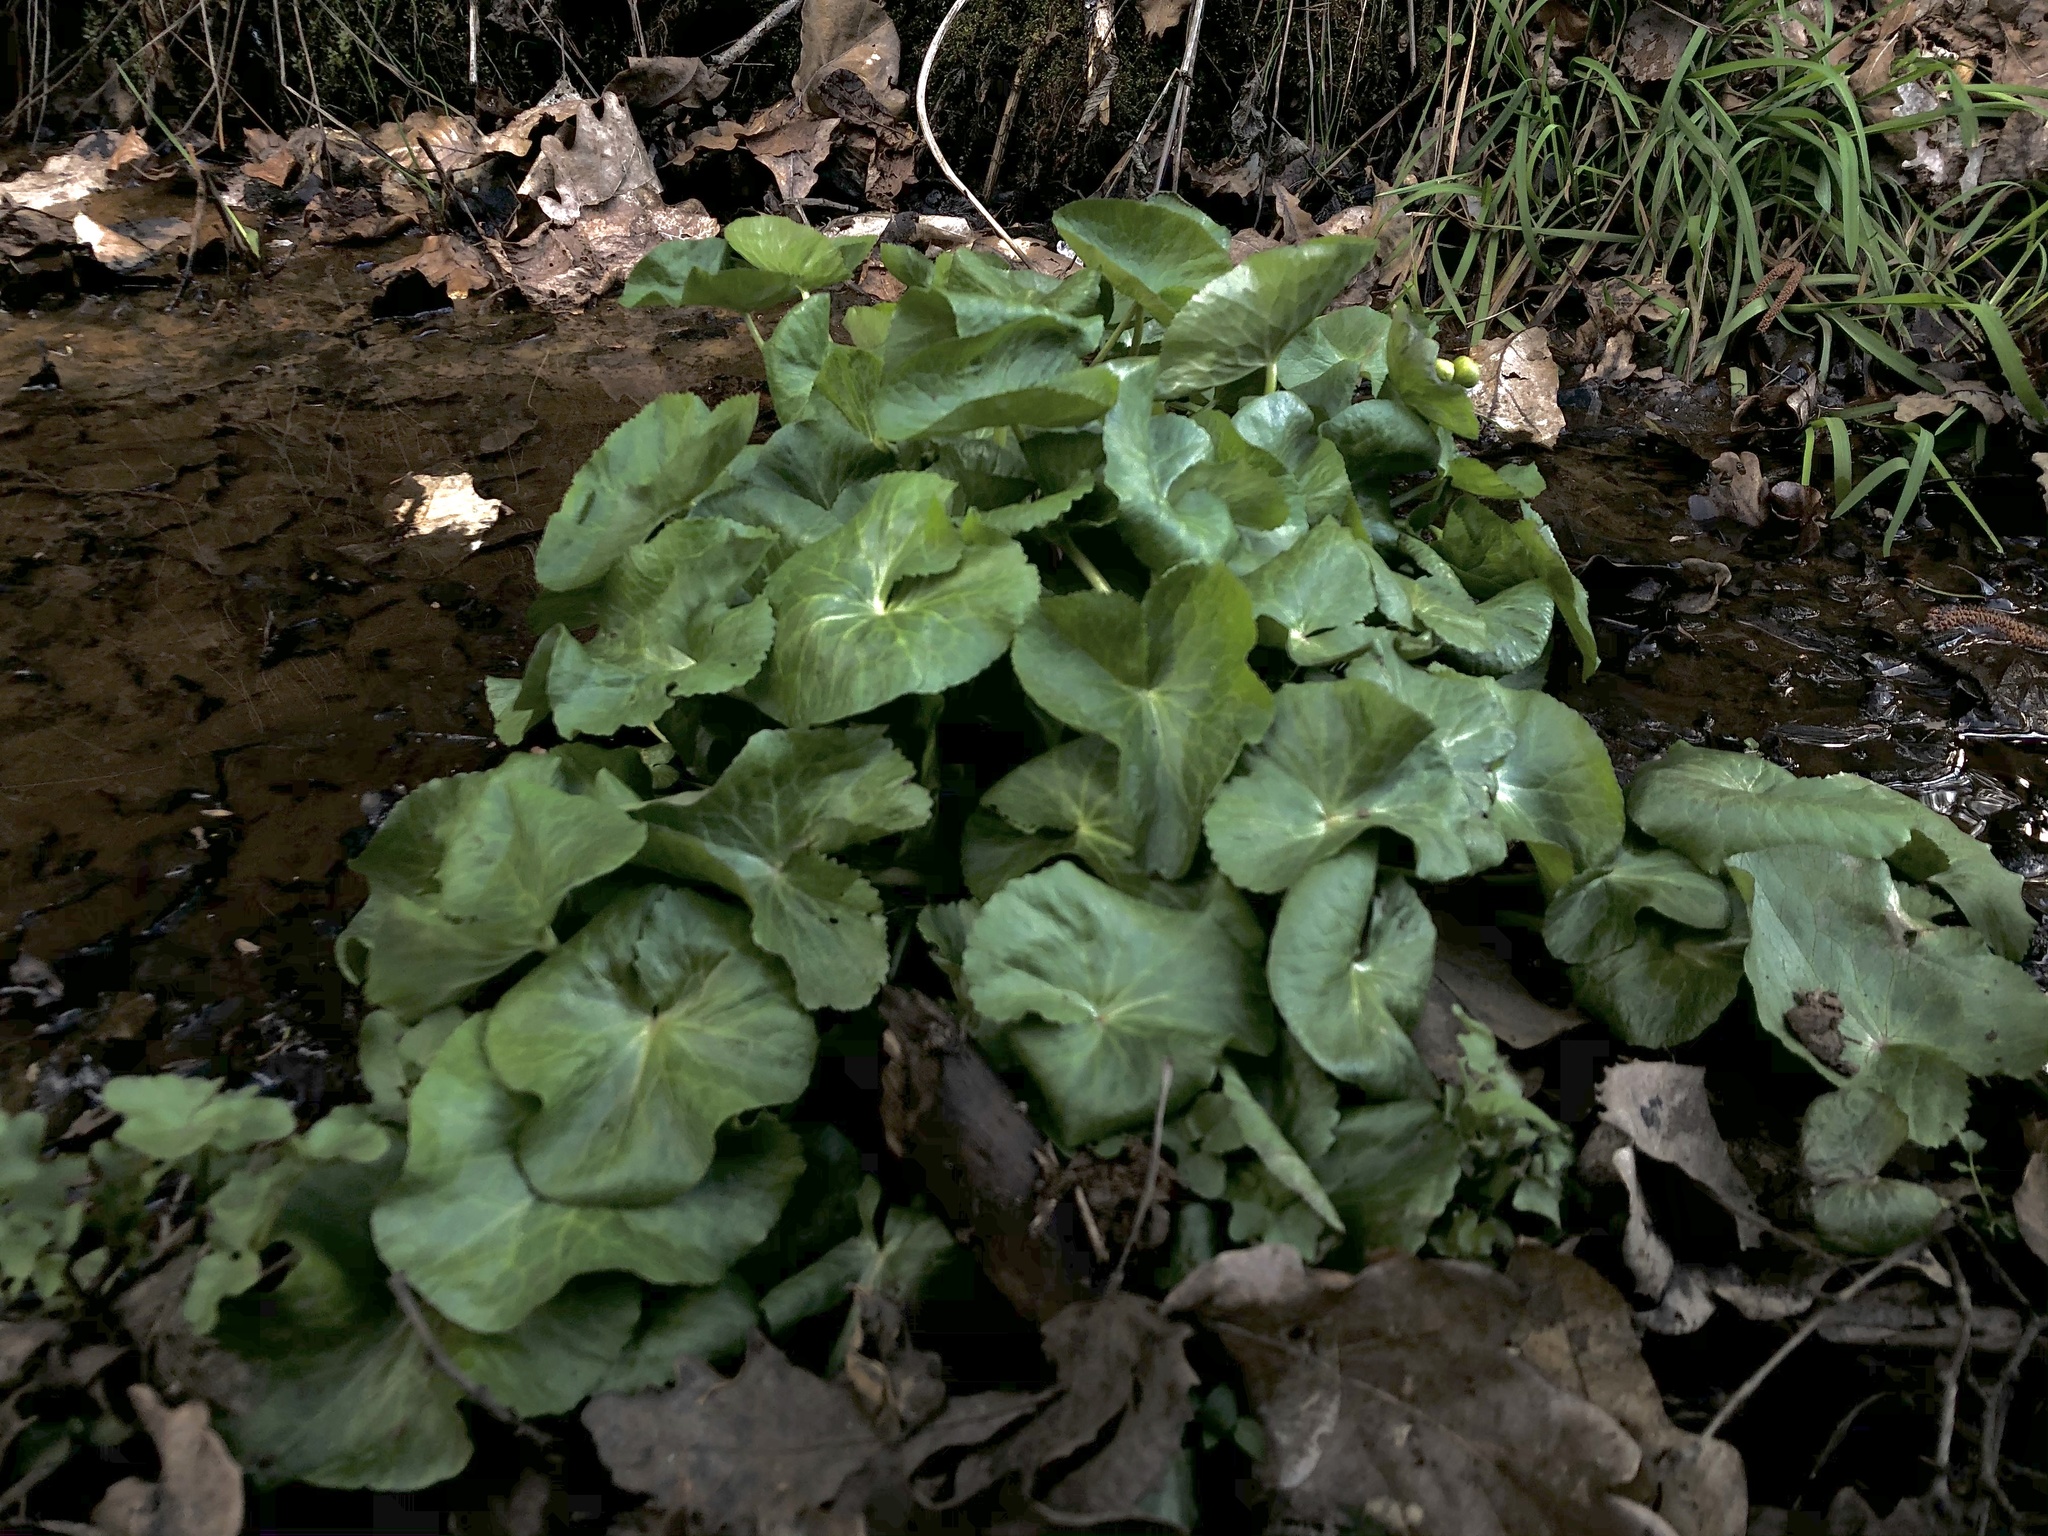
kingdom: Plantae
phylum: Tracheophyta
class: Magnoliopsida
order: Ranunculales
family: Ranunculaceae
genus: Caltha
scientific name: Caltha palustris
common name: Marsh marigold
